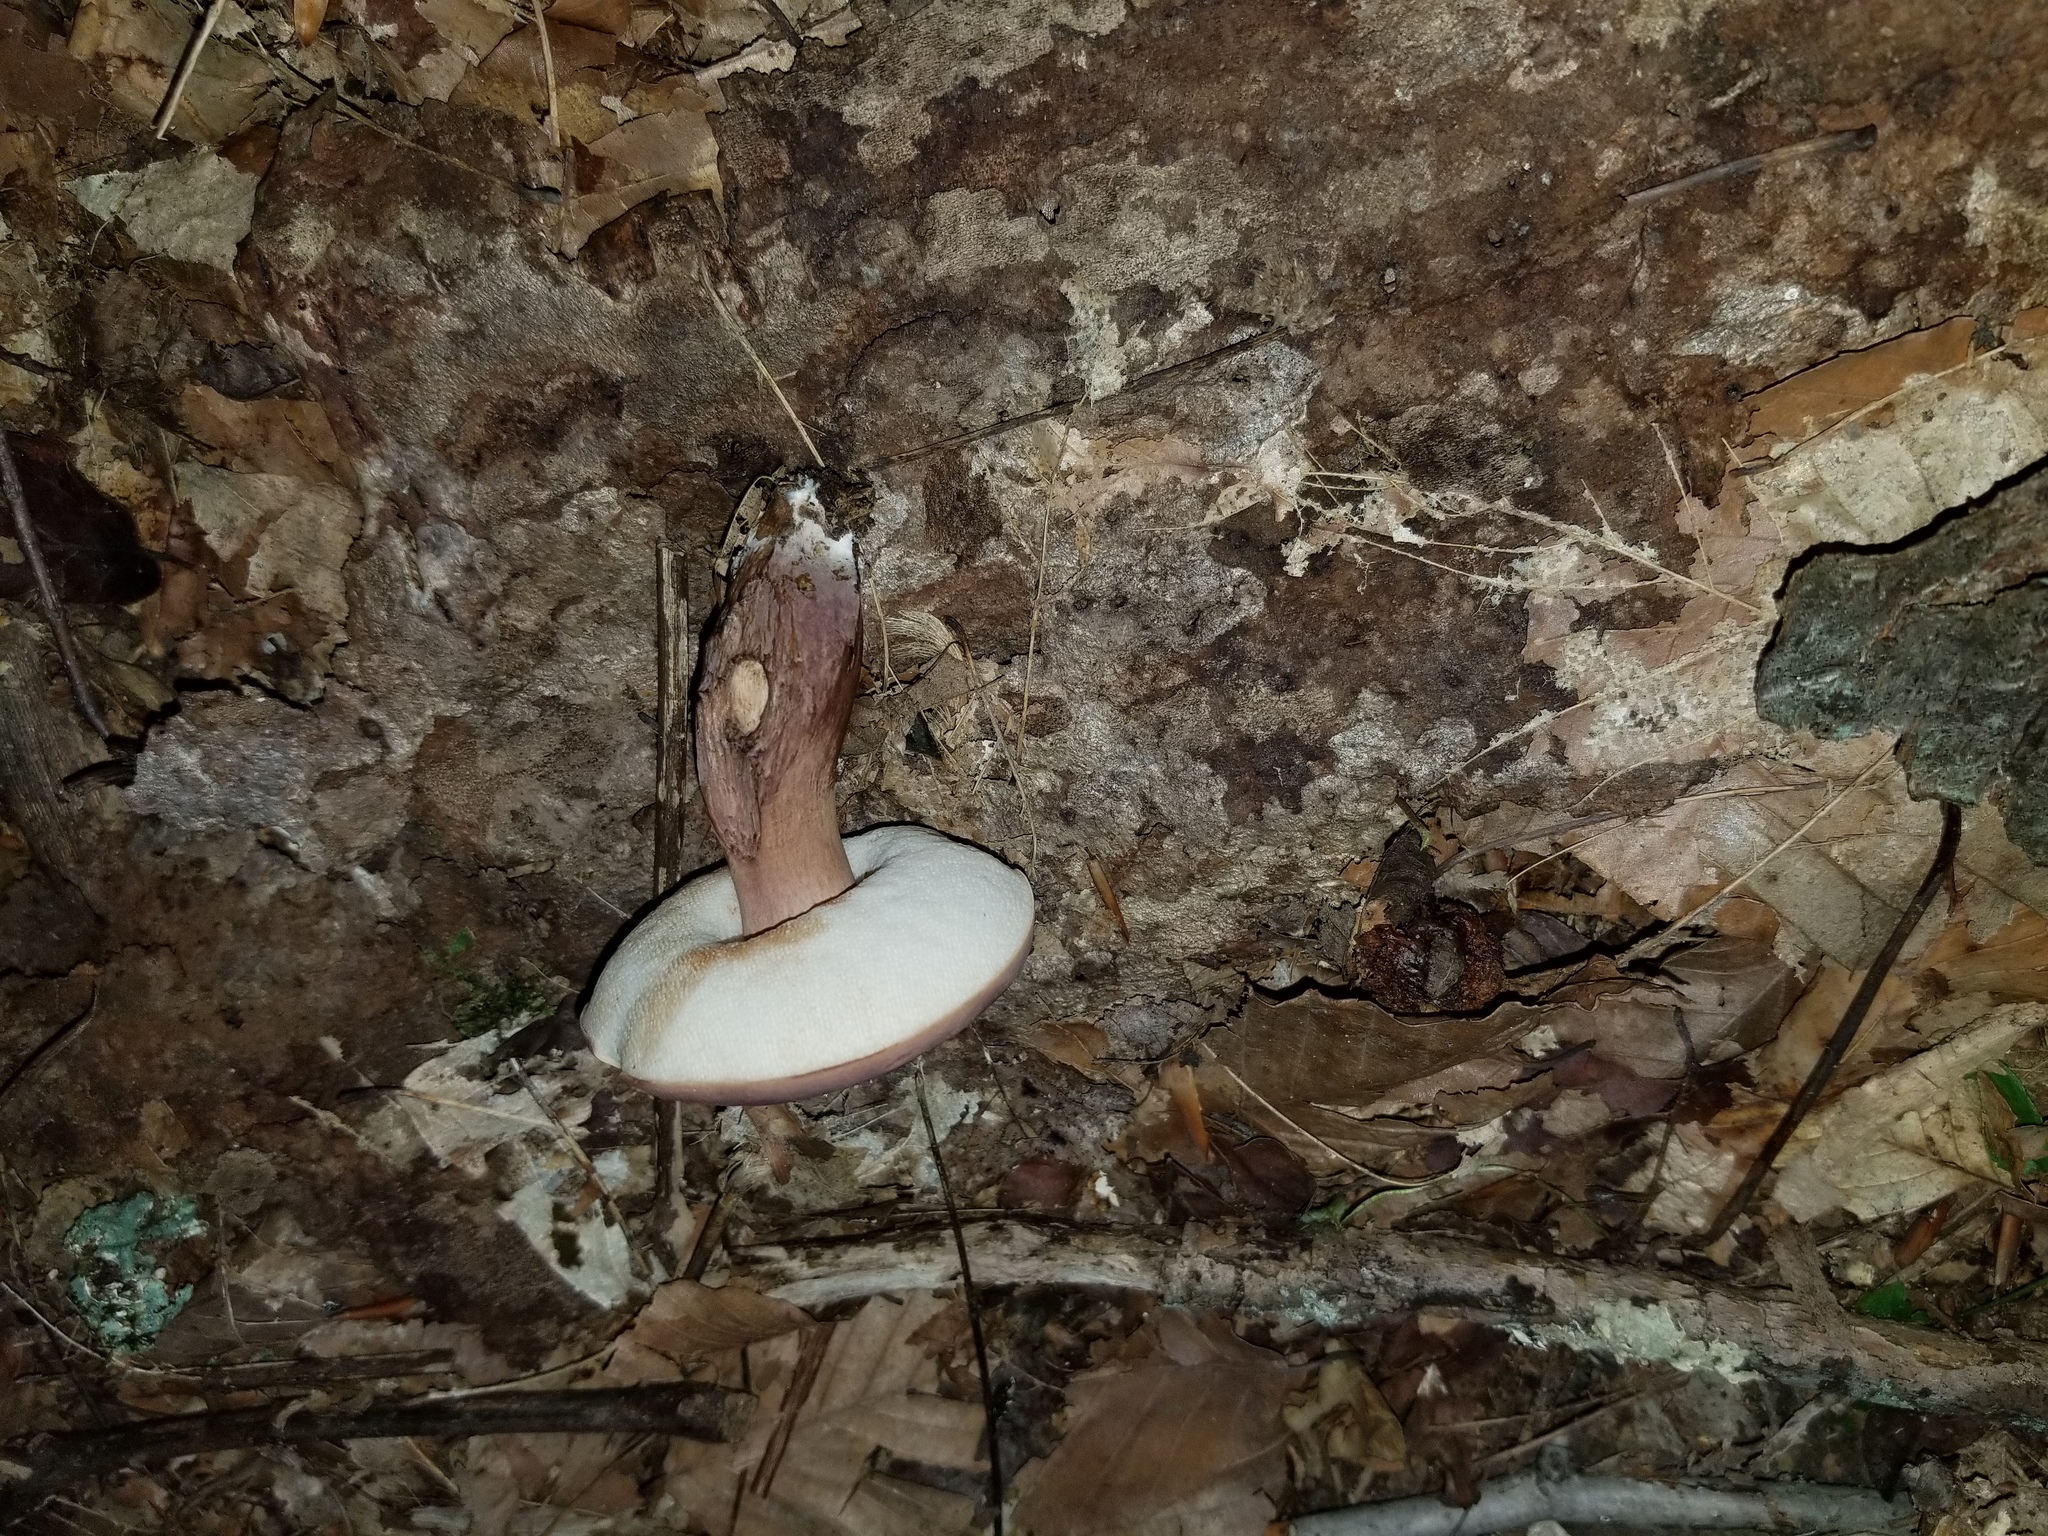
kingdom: Fungi
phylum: Basidiomycota
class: Agaricomycetes
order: Boletales
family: Boletaceae
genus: Tylopilus
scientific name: Tylopilus ferrugineus
